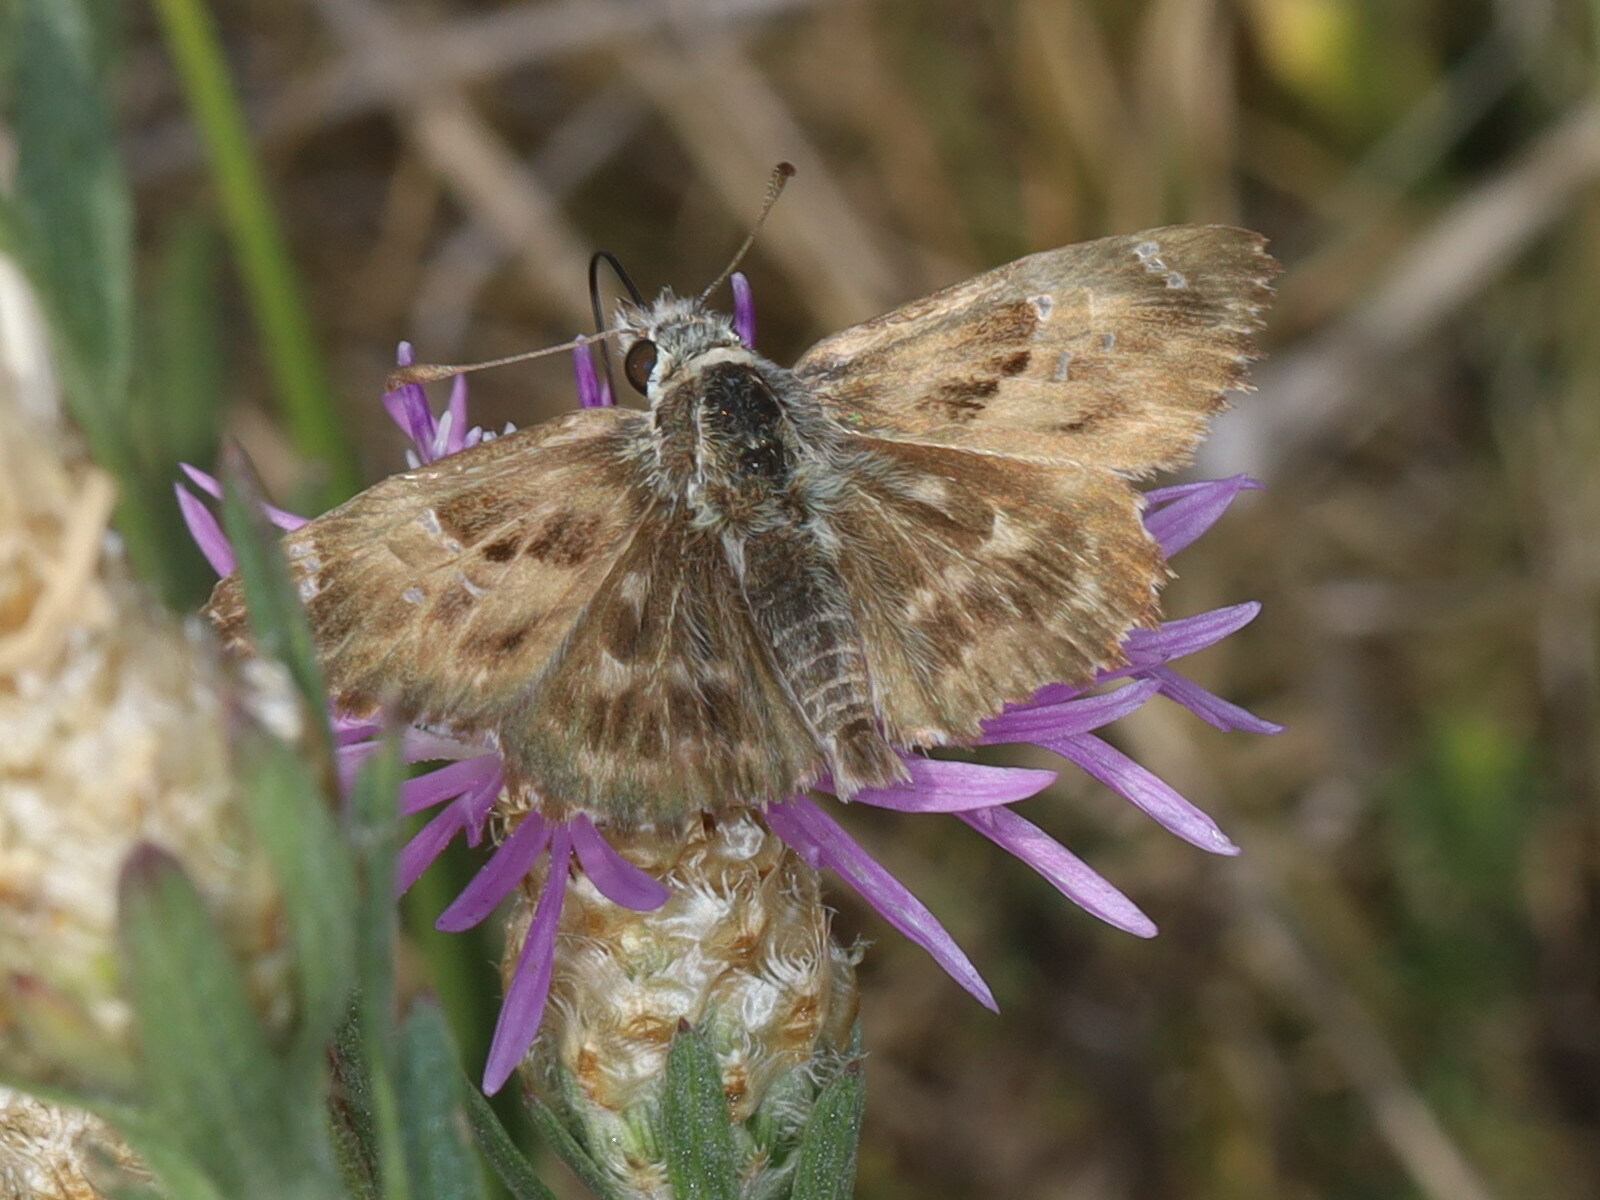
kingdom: Animalia
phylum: Arthropoda
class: Insecta
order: Lepidoptera
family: Hesperiidae
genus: Carcharodus
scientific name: Carcharodus alceae
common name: Mallow skipper
